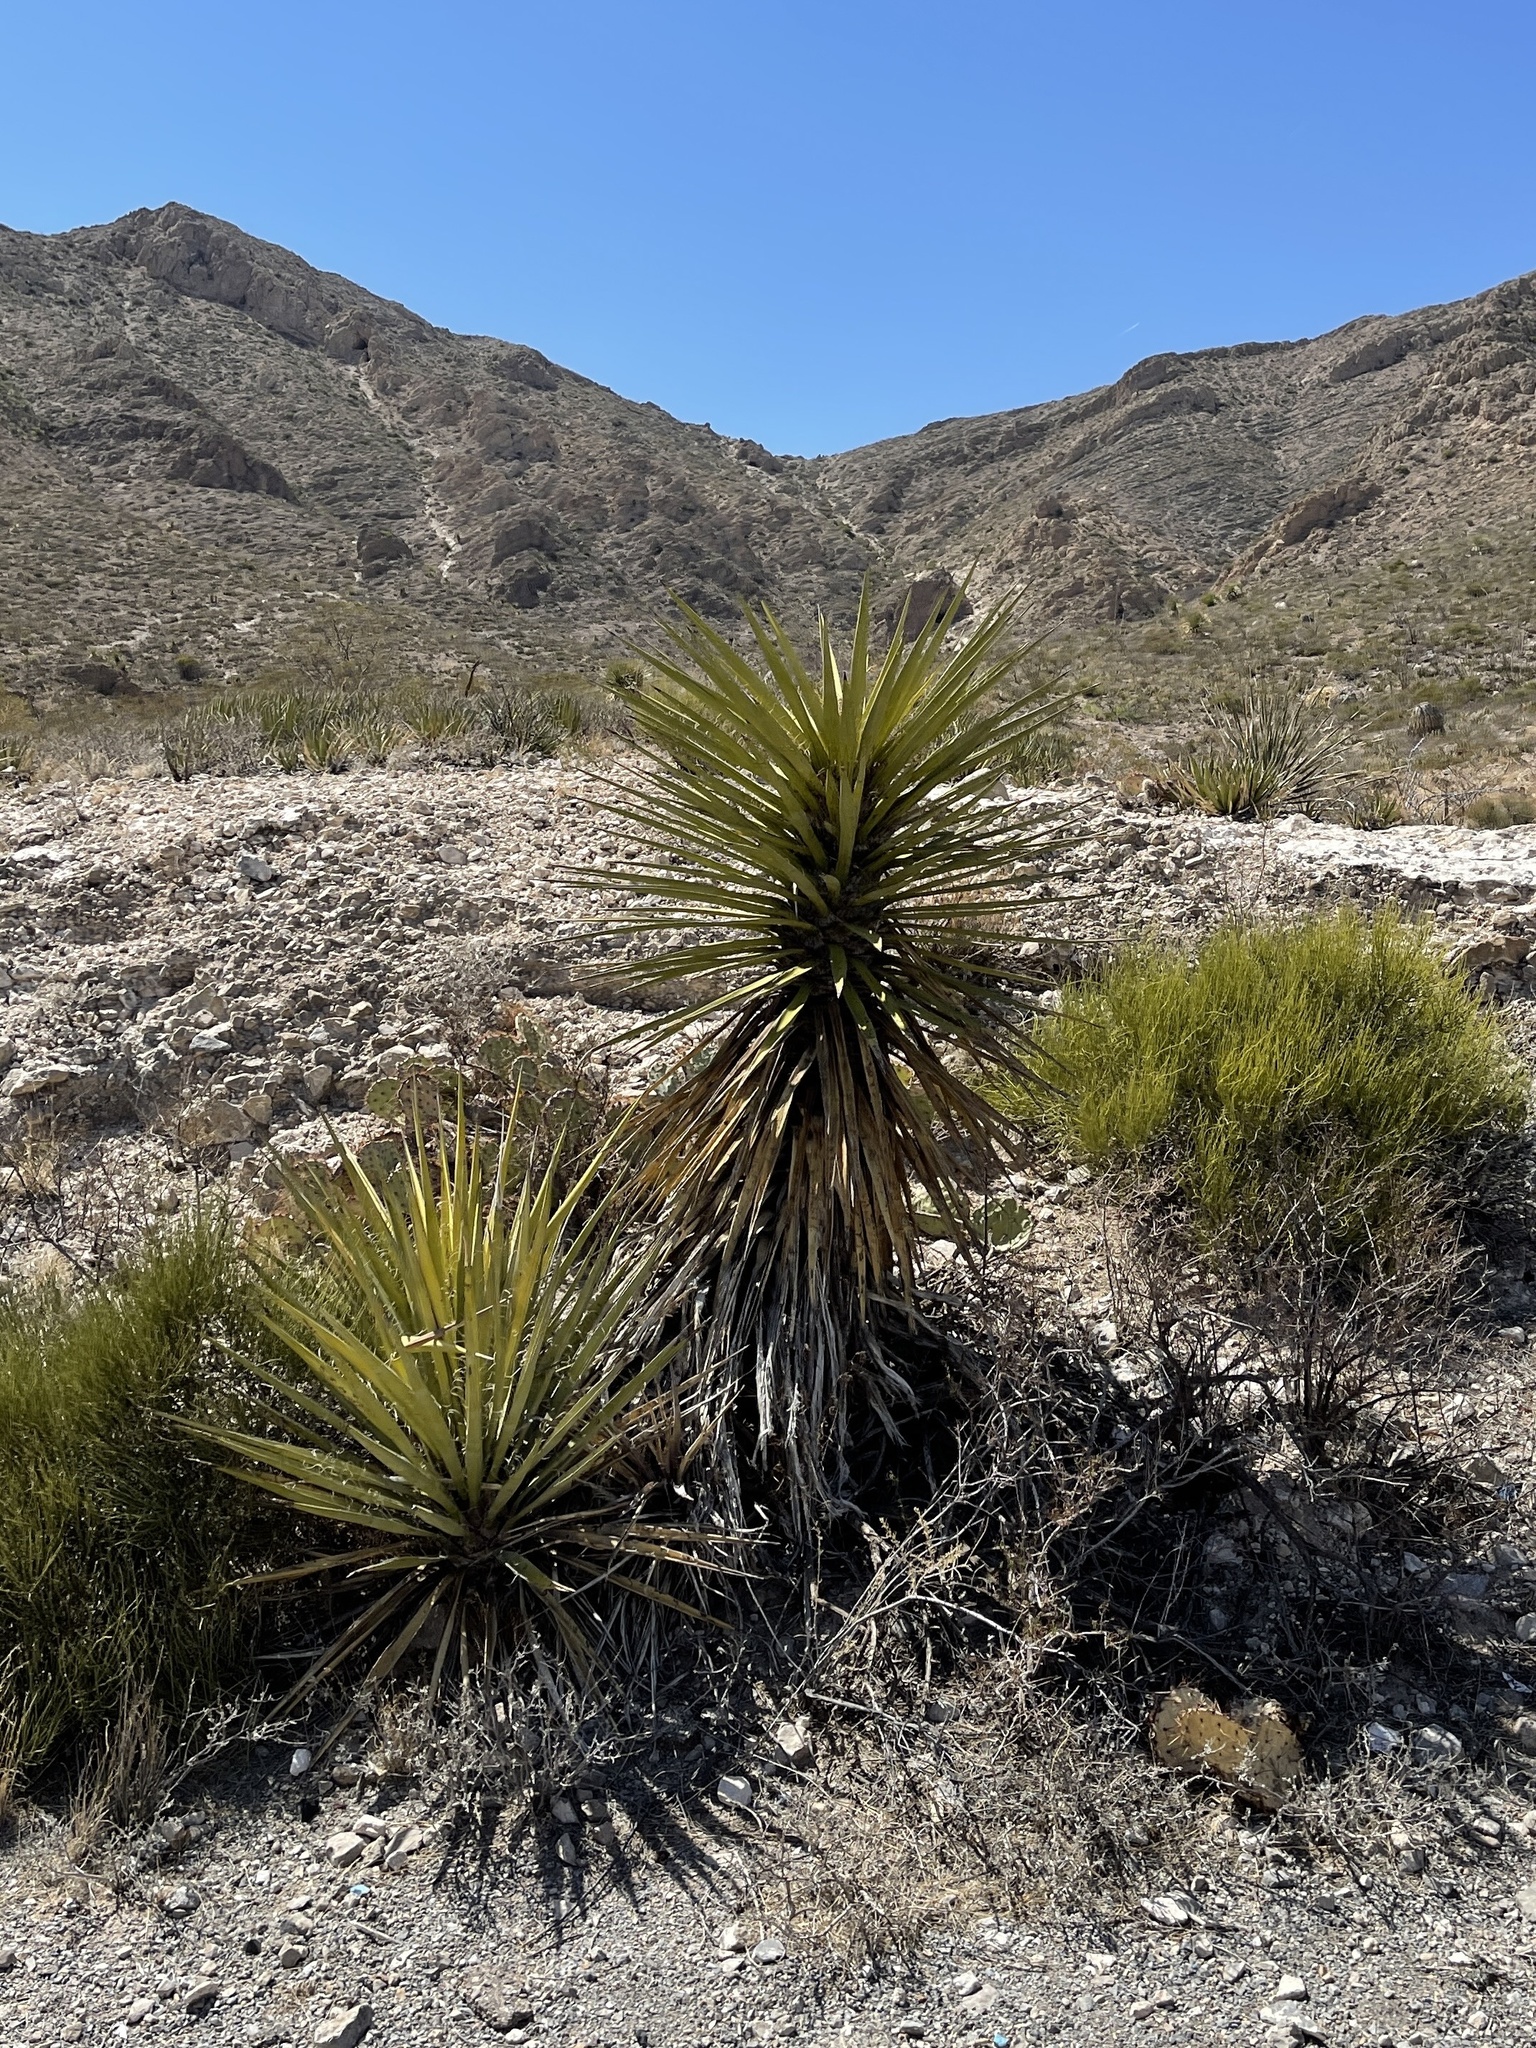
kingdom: Plantae
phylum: Tracheophyta
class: Liliopsida
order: Asparagales
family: Asparagaceae
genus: Yucca
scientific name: Yucca treculiana
